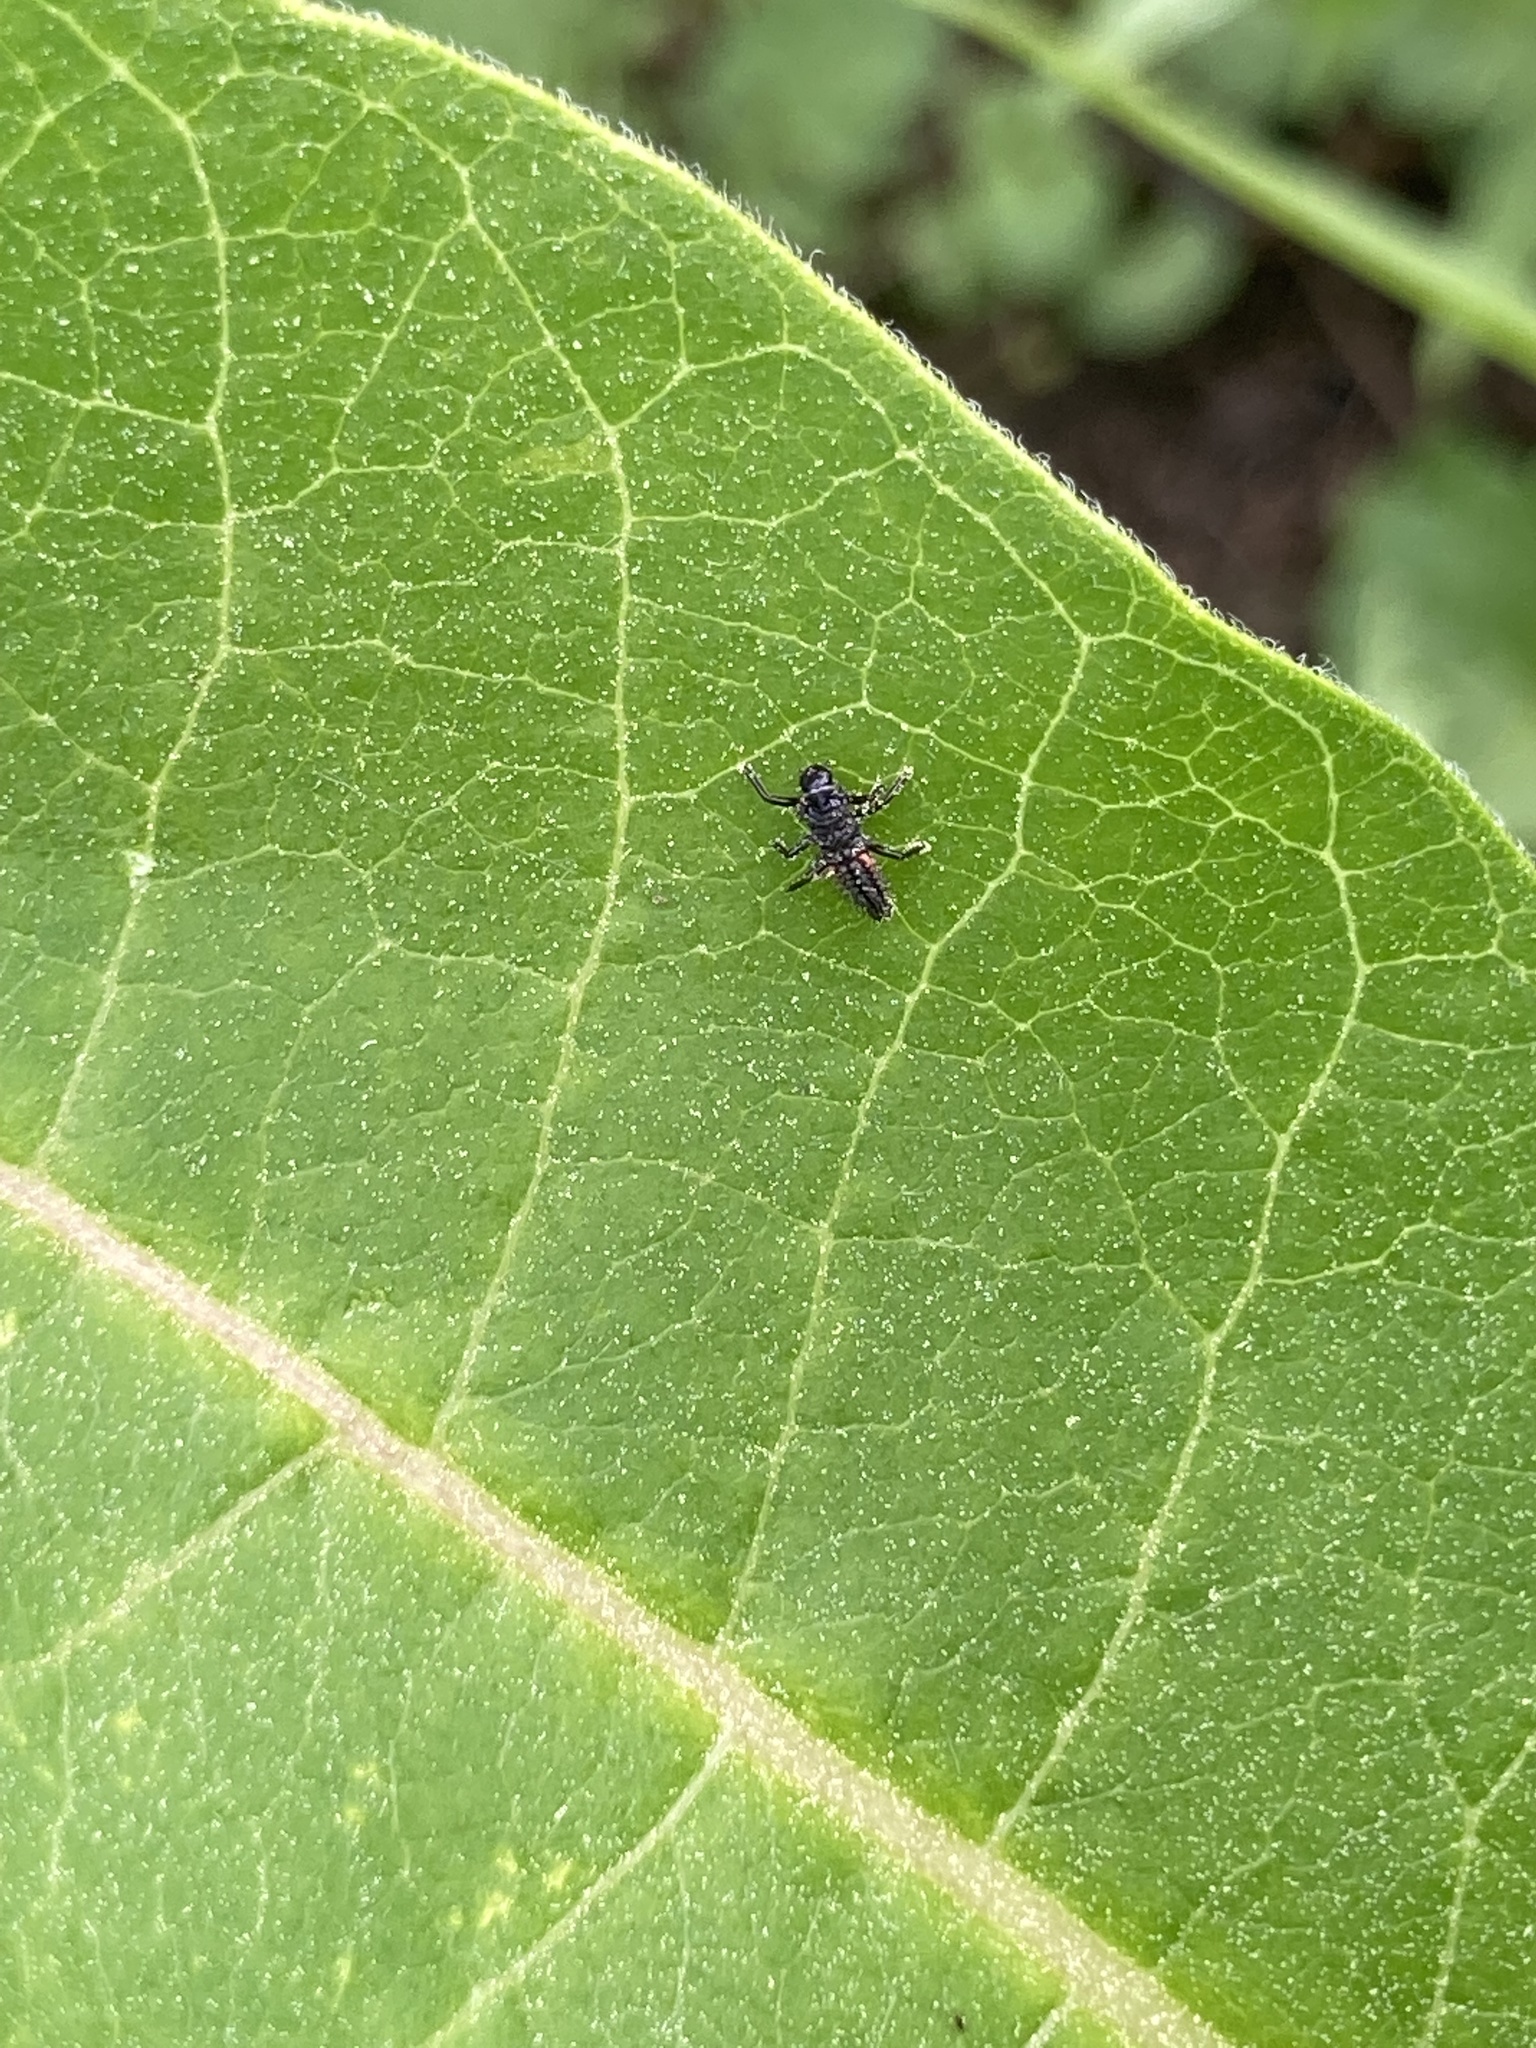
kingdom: Animalia
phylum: Arthropoda
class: Insecta
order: Coleoptera
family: Coccinellidae
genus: Harmonia
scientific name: Harmonia axyridis
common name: Harlequin ladybird
